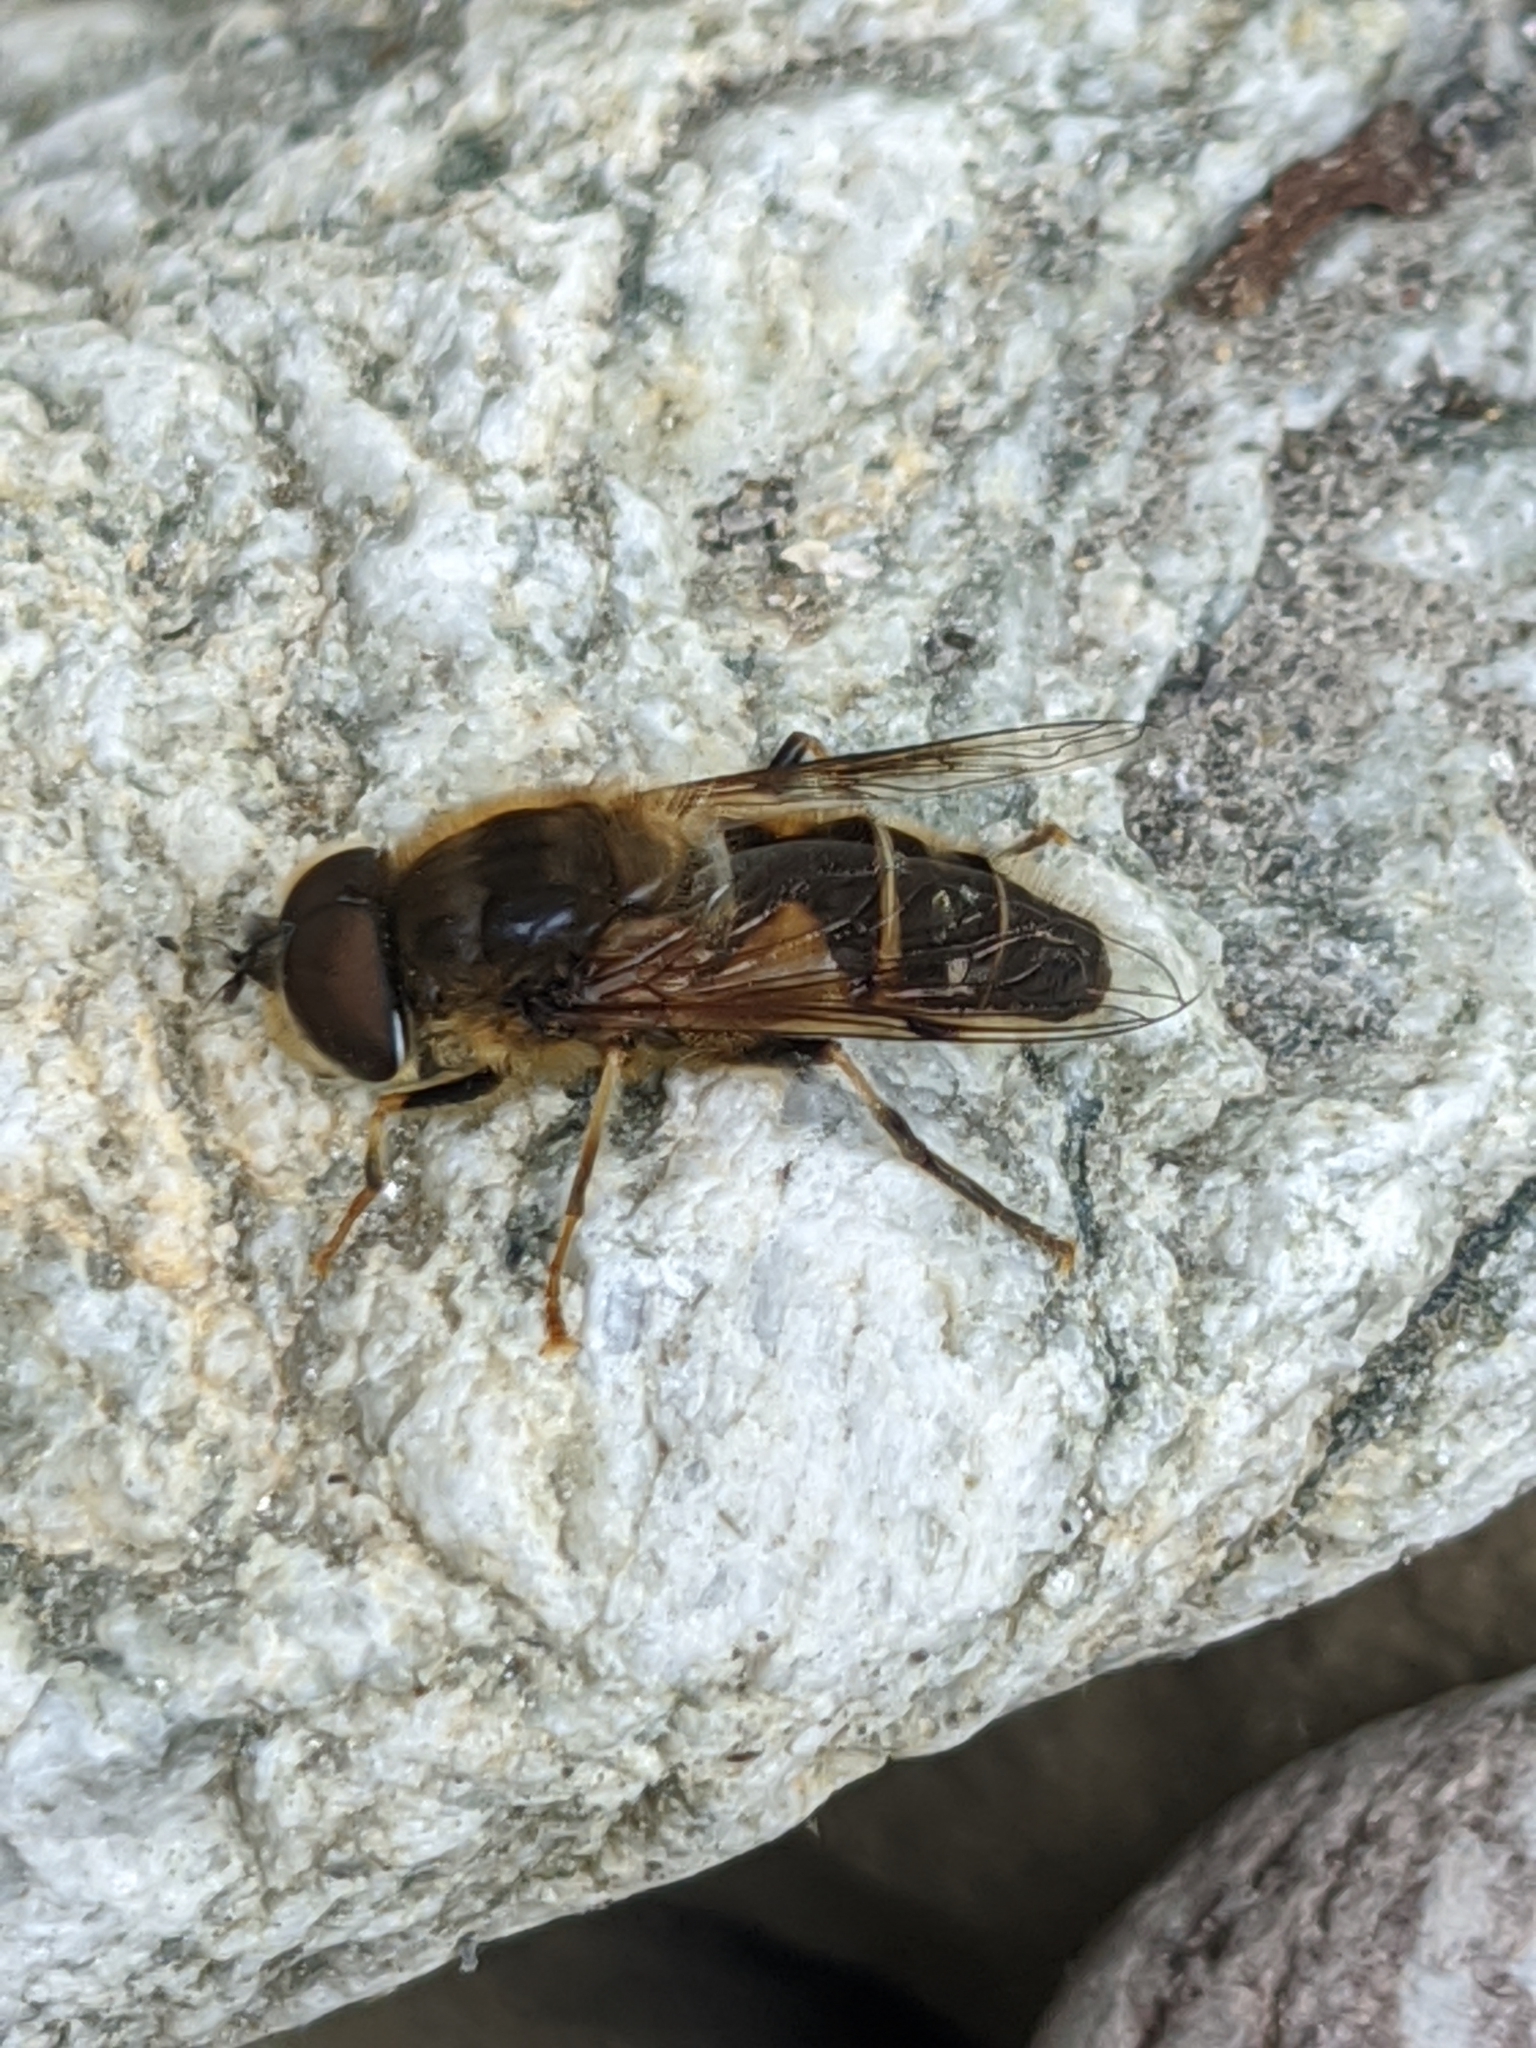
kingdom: Animalia
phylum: Arthropoda
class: Insecta
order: Diptera
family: Syrphidae
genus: Eristalis
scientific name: Eristalis pertinax
